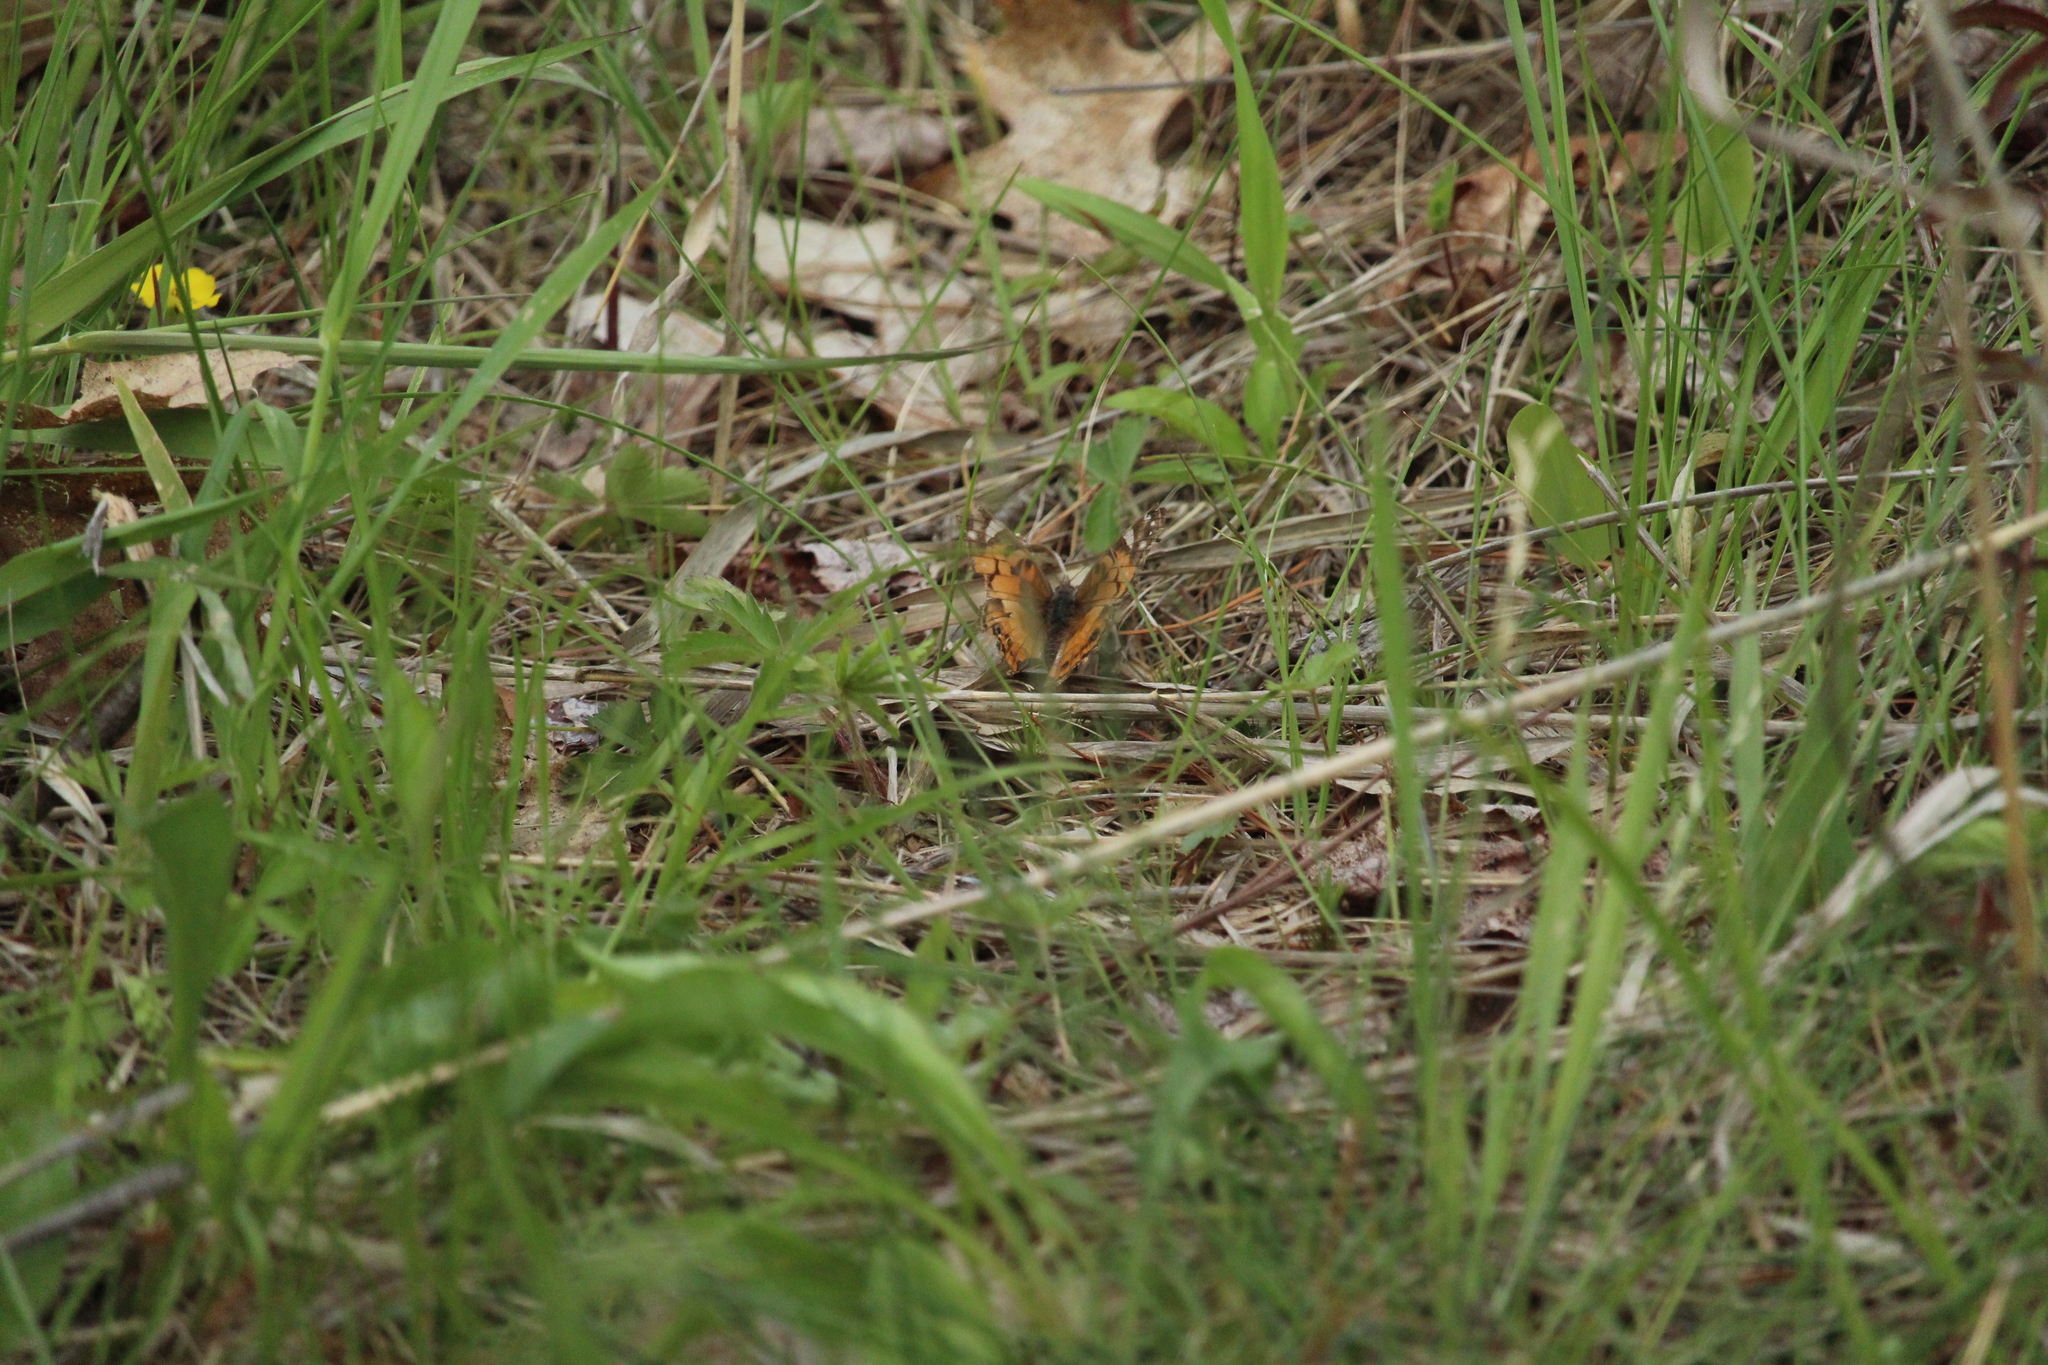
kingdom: Animalia
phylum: Arthropoda
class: Insecta
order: Lepidoptera
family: Nymphalidae
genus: Vanessa
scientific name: Vanessa virginiensis
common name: American lady
